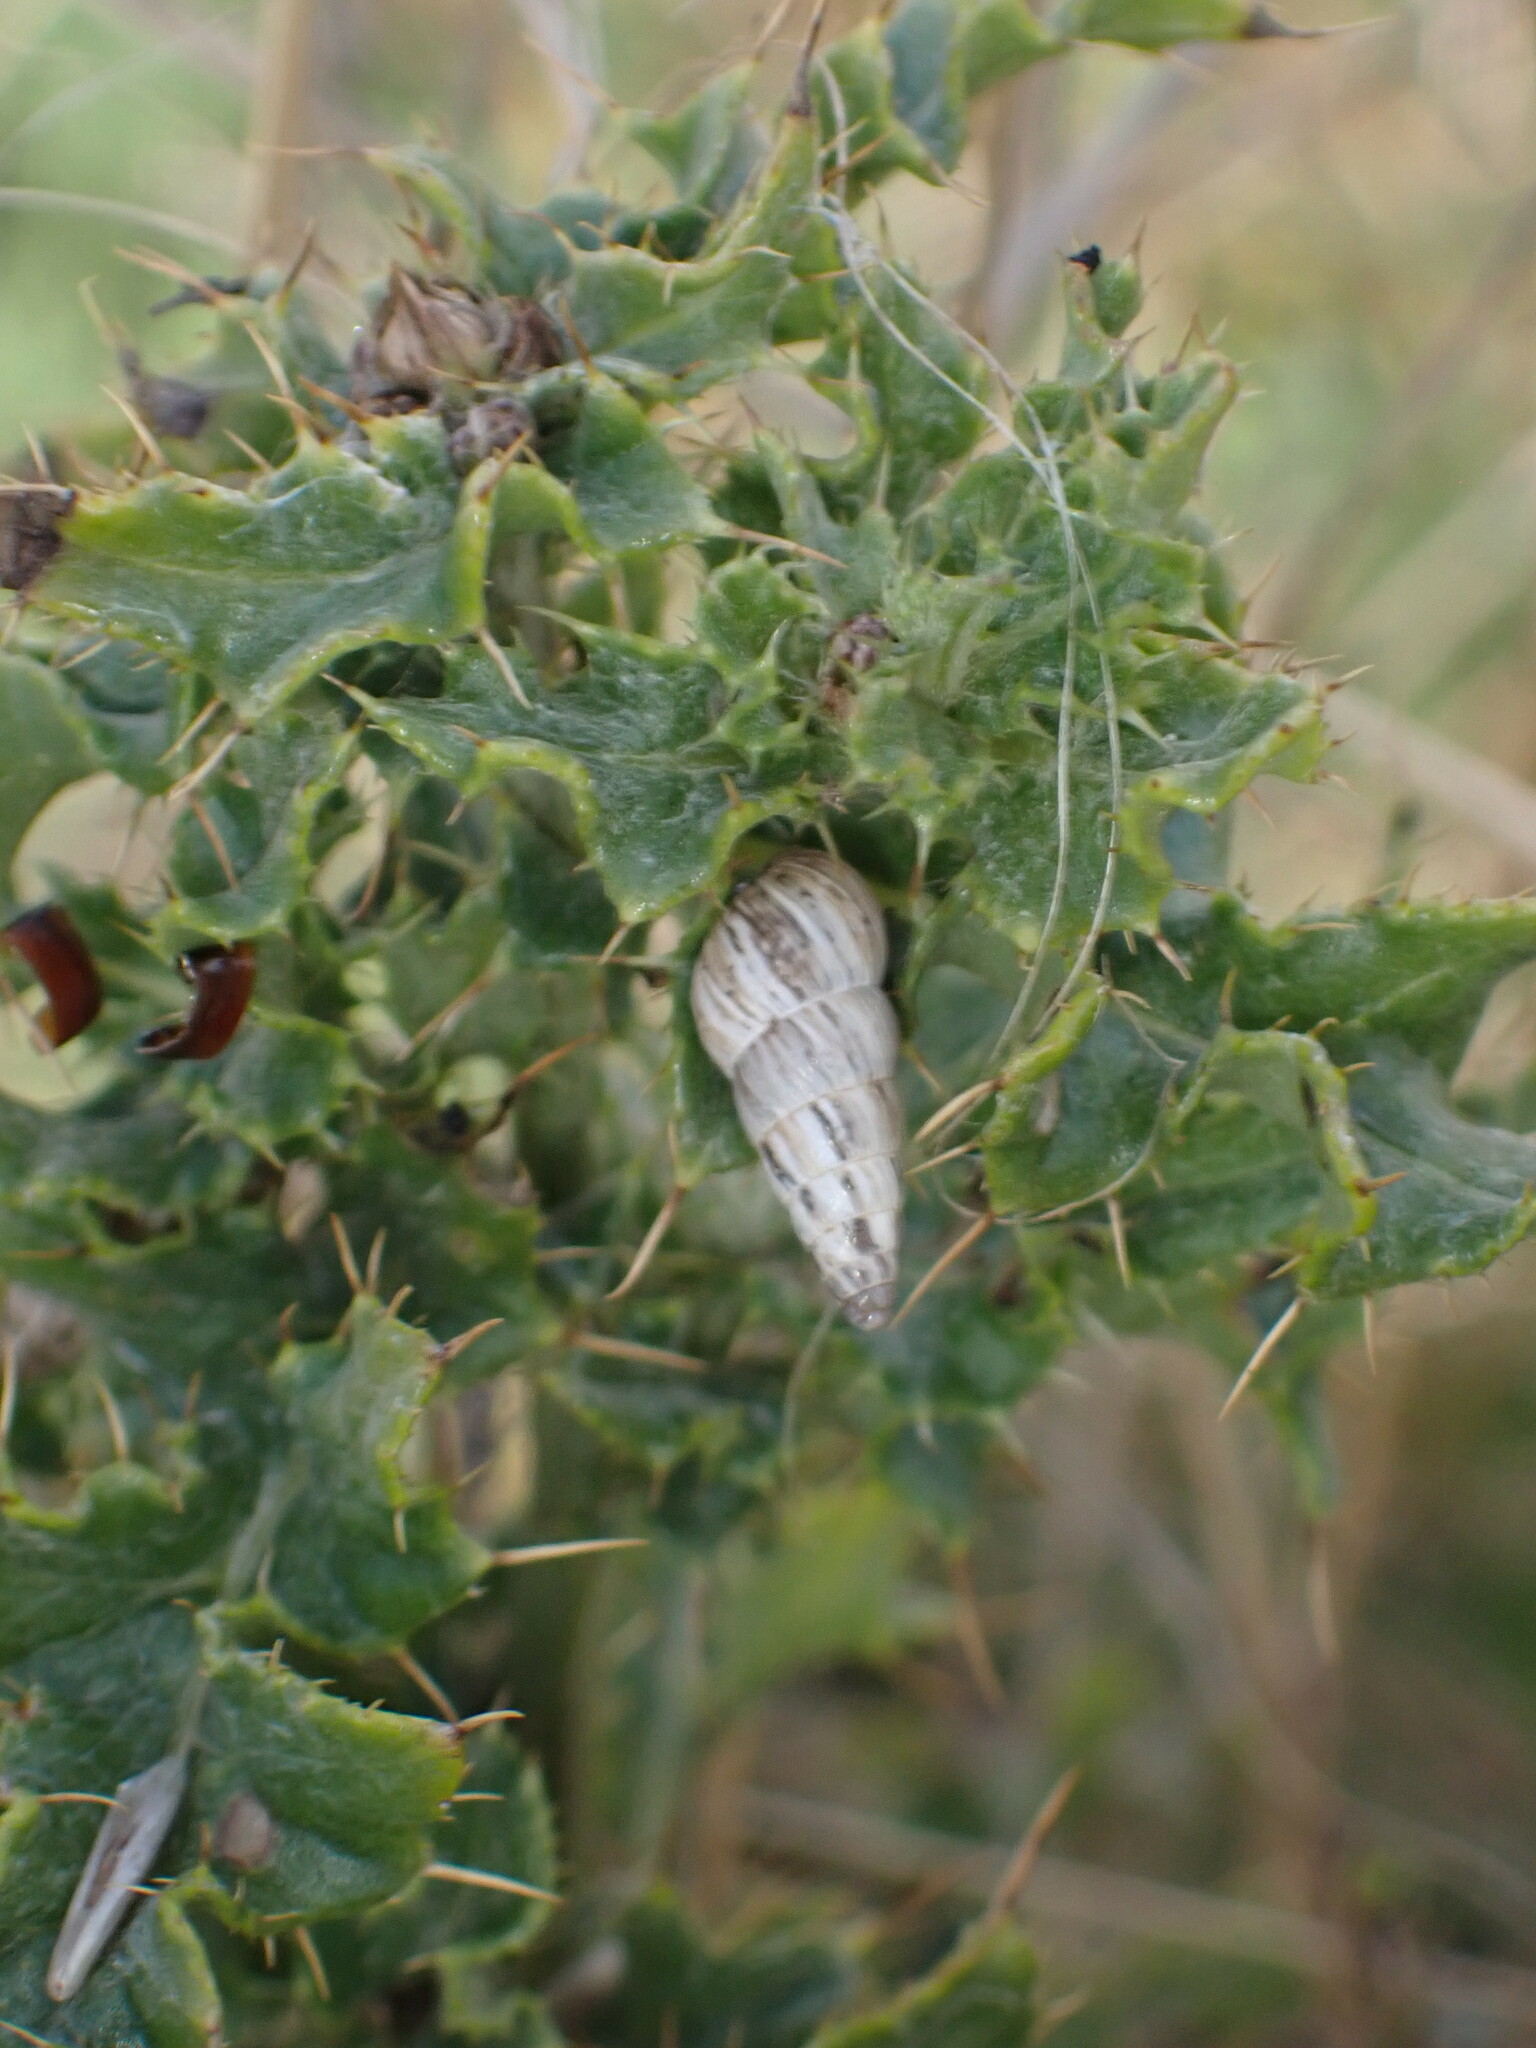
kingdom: Animalia
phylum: Mollusca
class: Gastropoda
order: Stylommatophora
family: Geomitridae
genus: Cochlicella
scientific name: Cochlicella acuta
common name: Pointed snail
